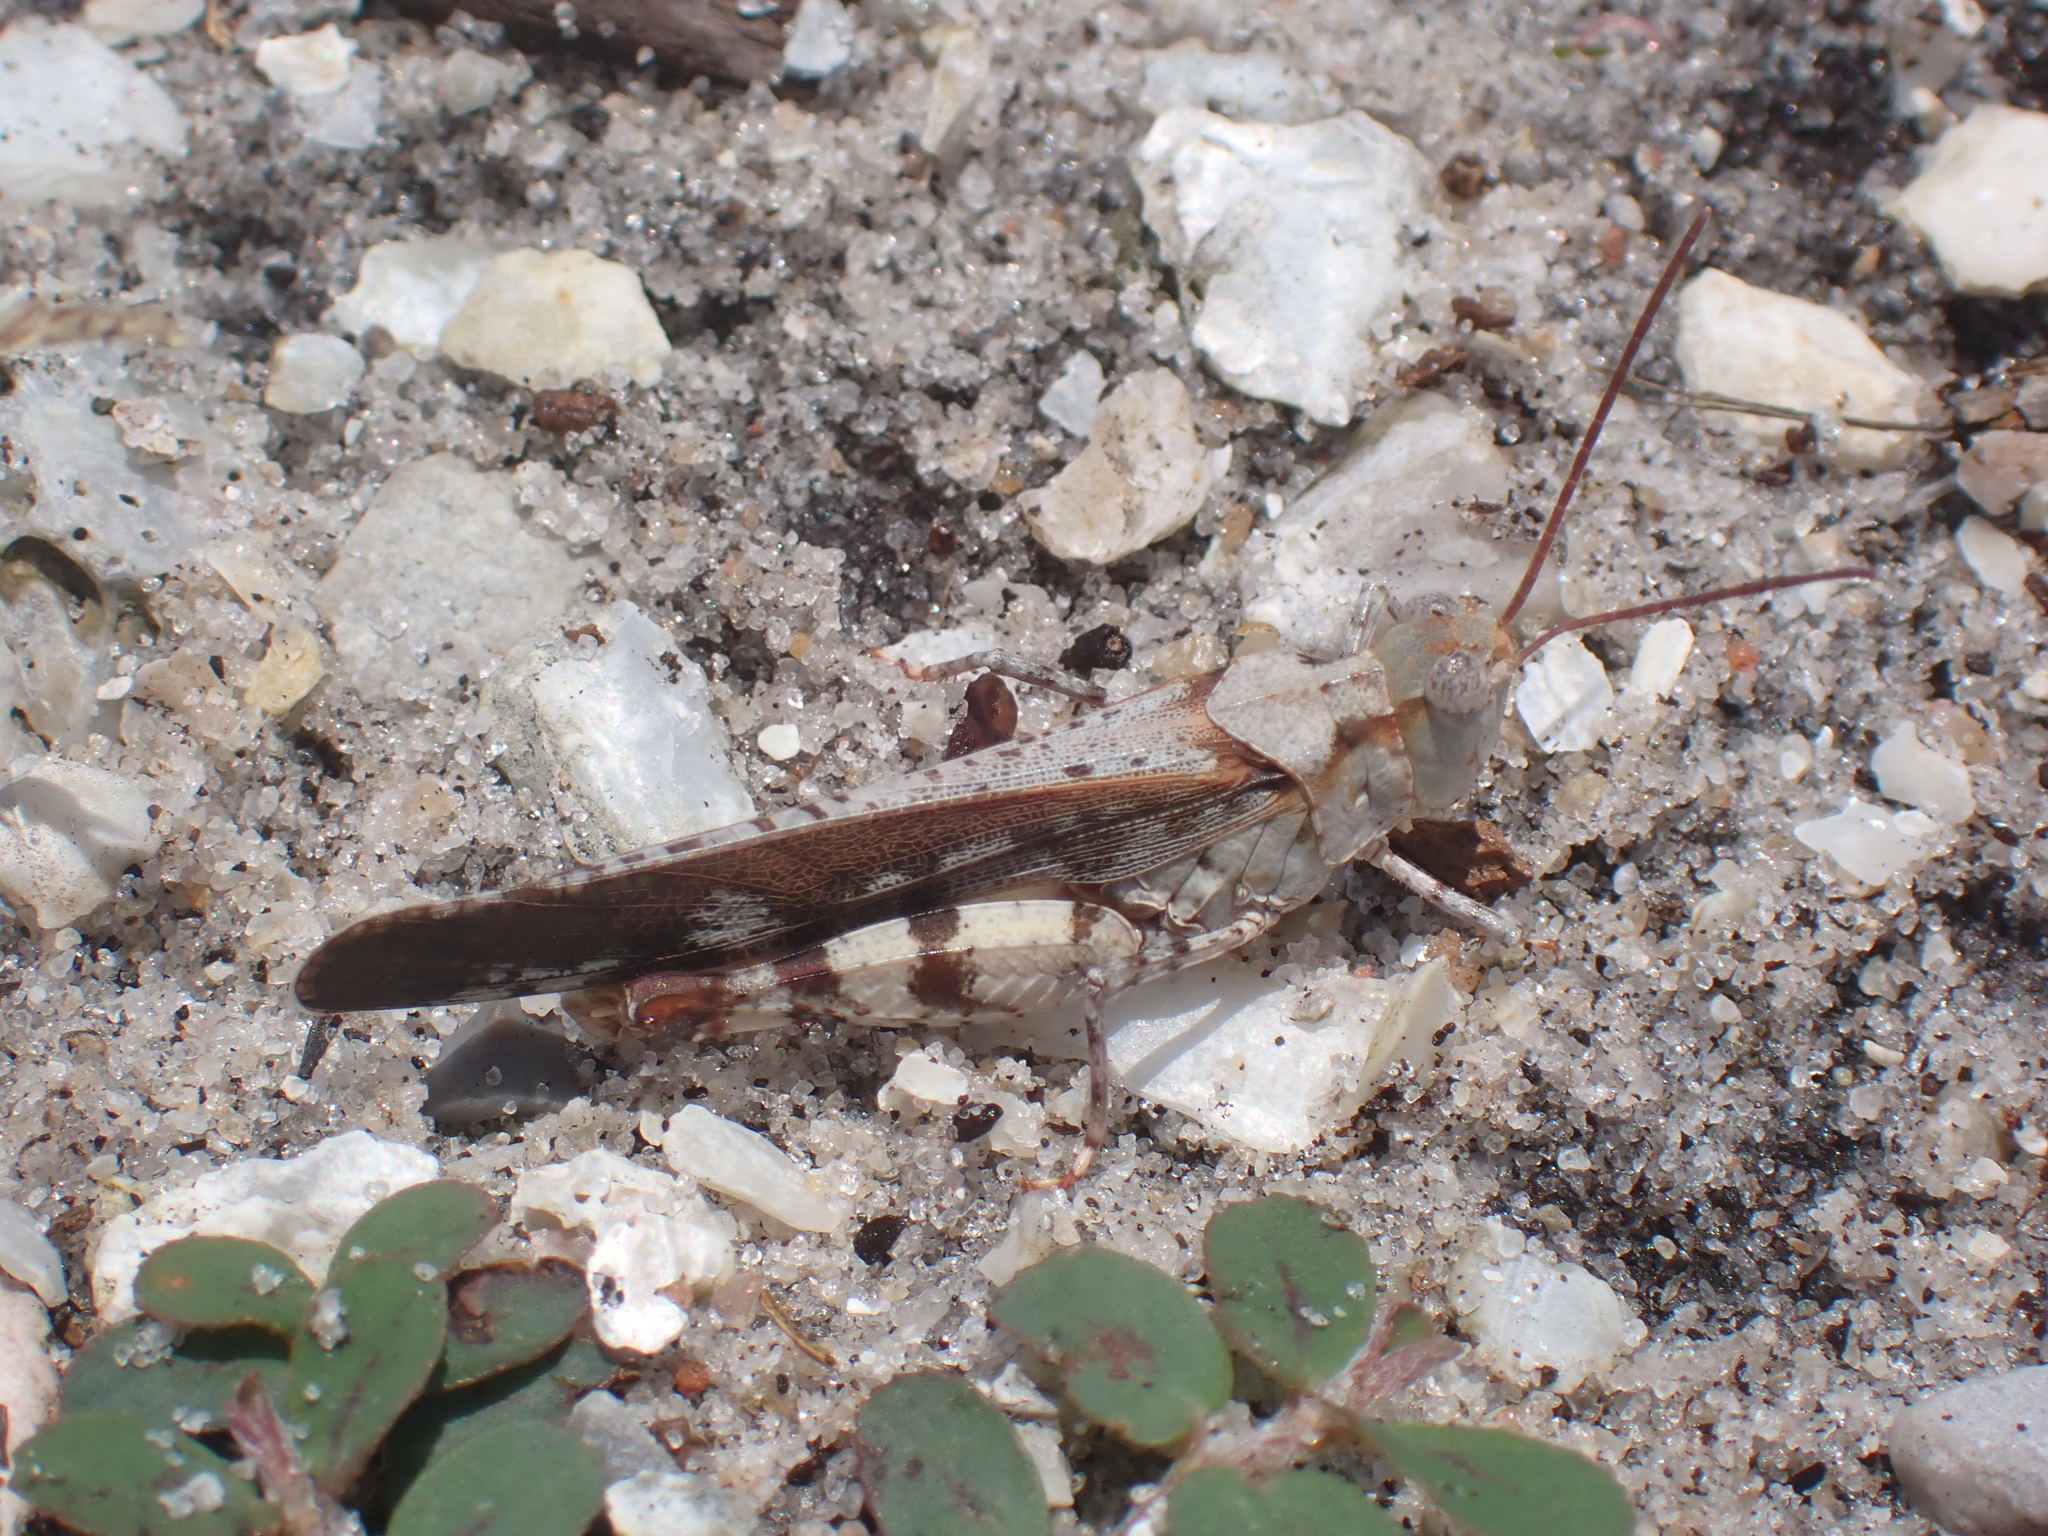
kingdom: Animalia
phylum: Arthropoda
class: Insecta
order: Orthoptera
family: Acrididae
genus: Spharagemon
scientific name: Spharagemon marmoratum
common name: Marbled grasshopper
